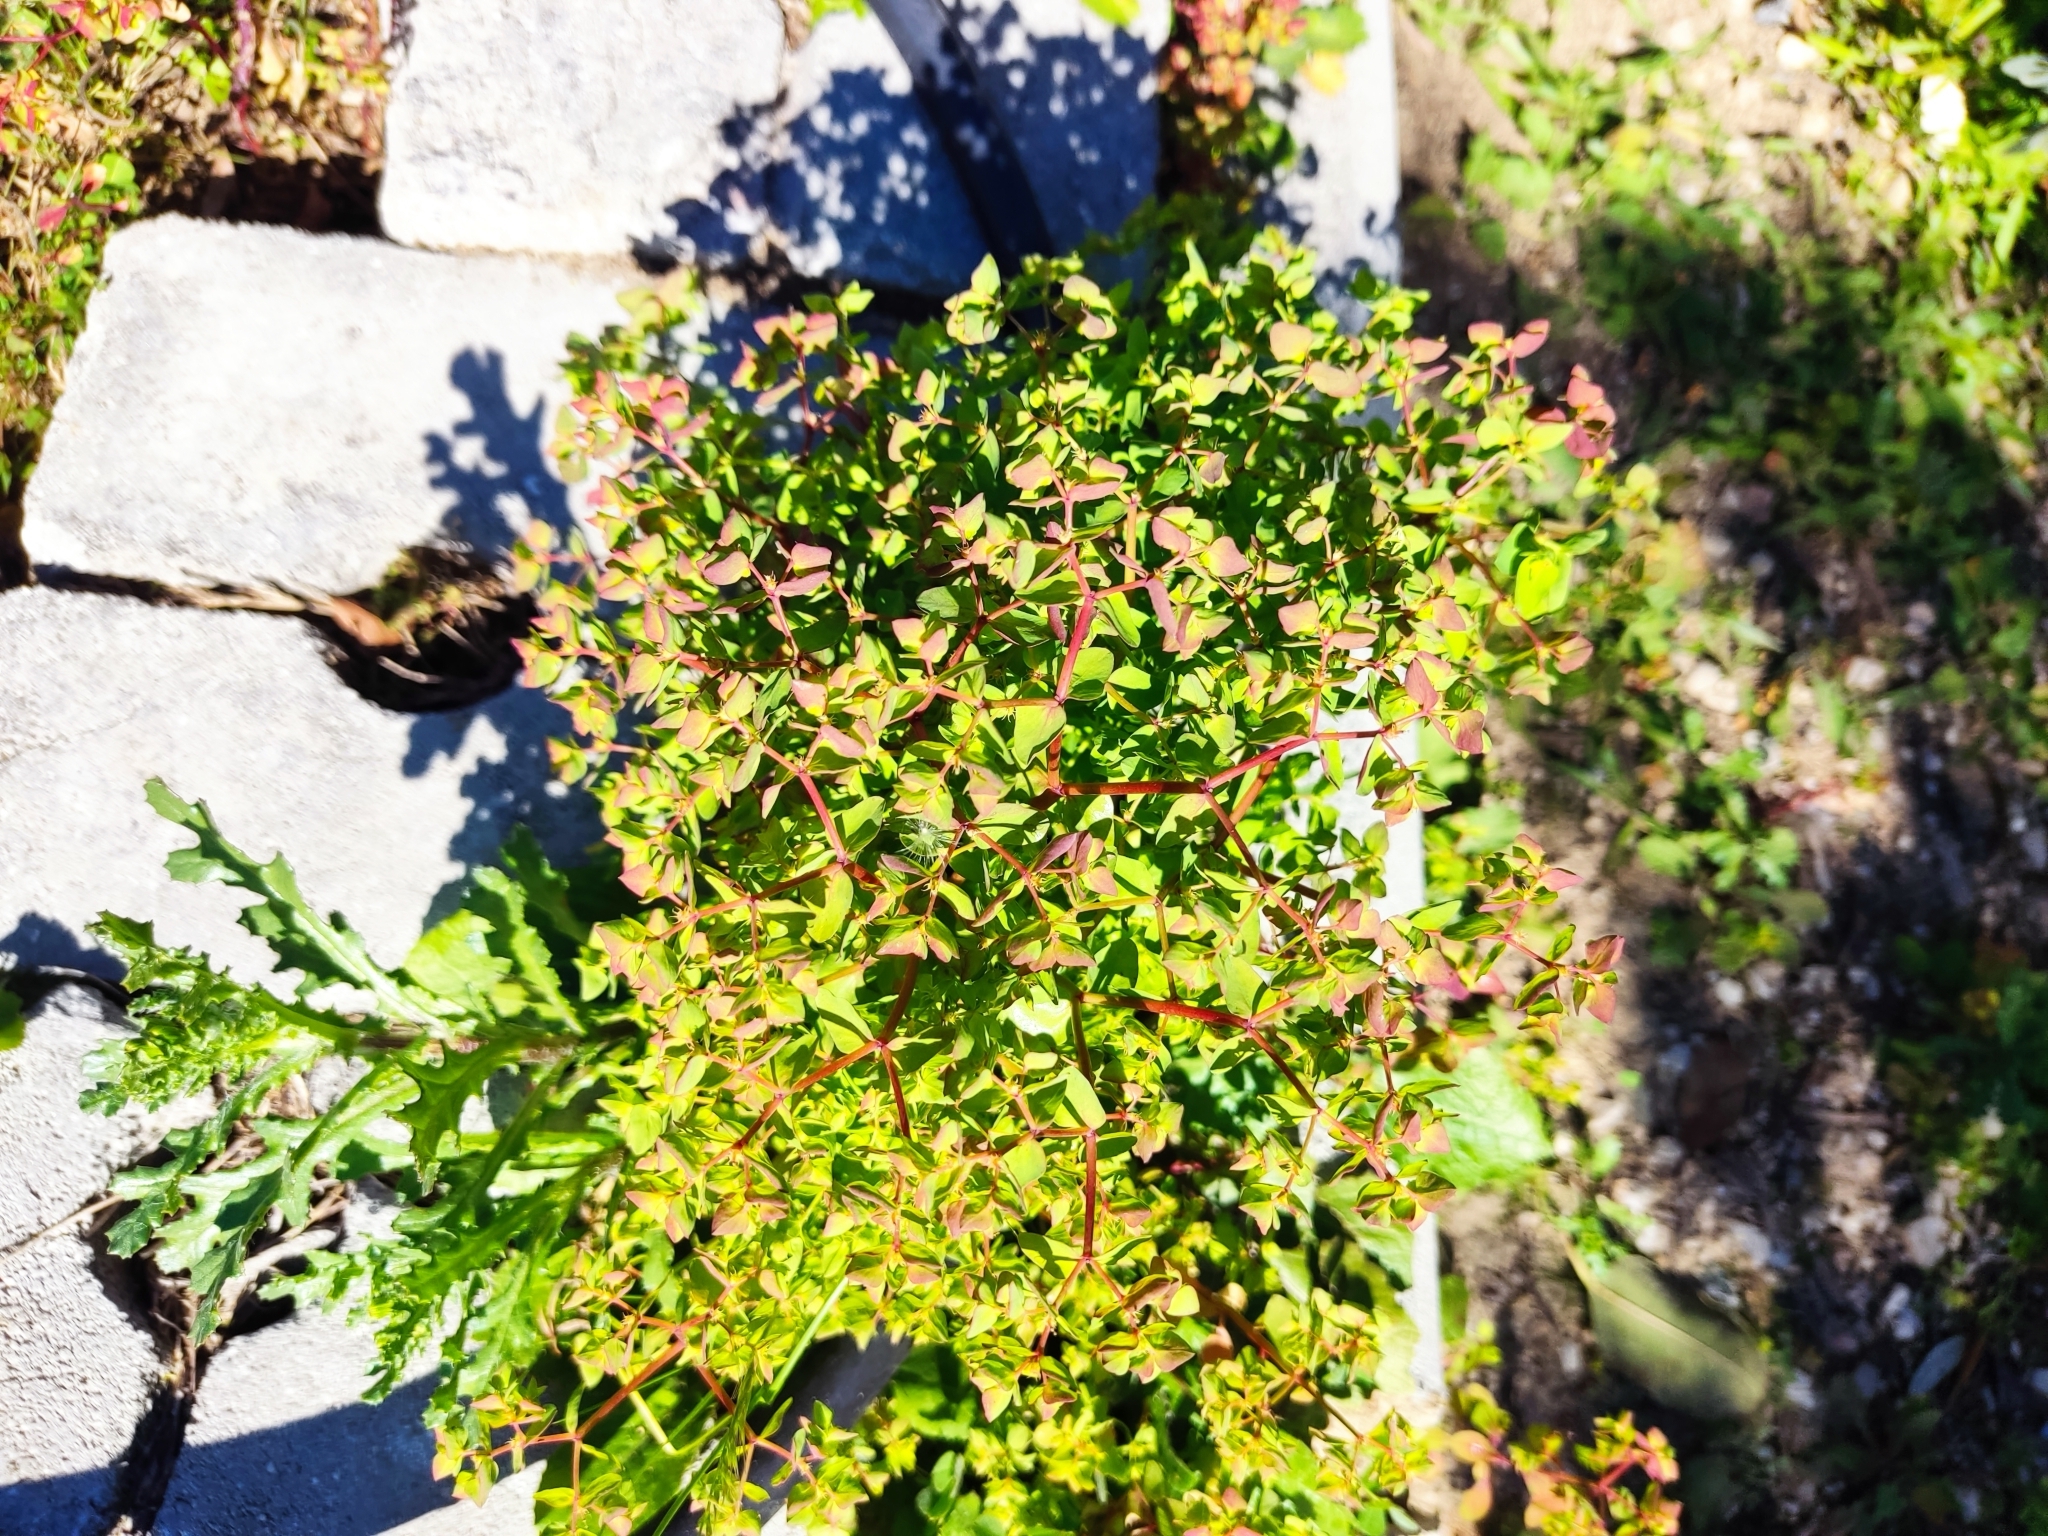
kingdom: Plantae
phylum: Tracheophyta
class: Magnoliopsida
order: Malpighiales
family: Euphorbiaceae
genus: Euphorbia
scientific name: Euphorbia peplus
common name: Petty spurge
